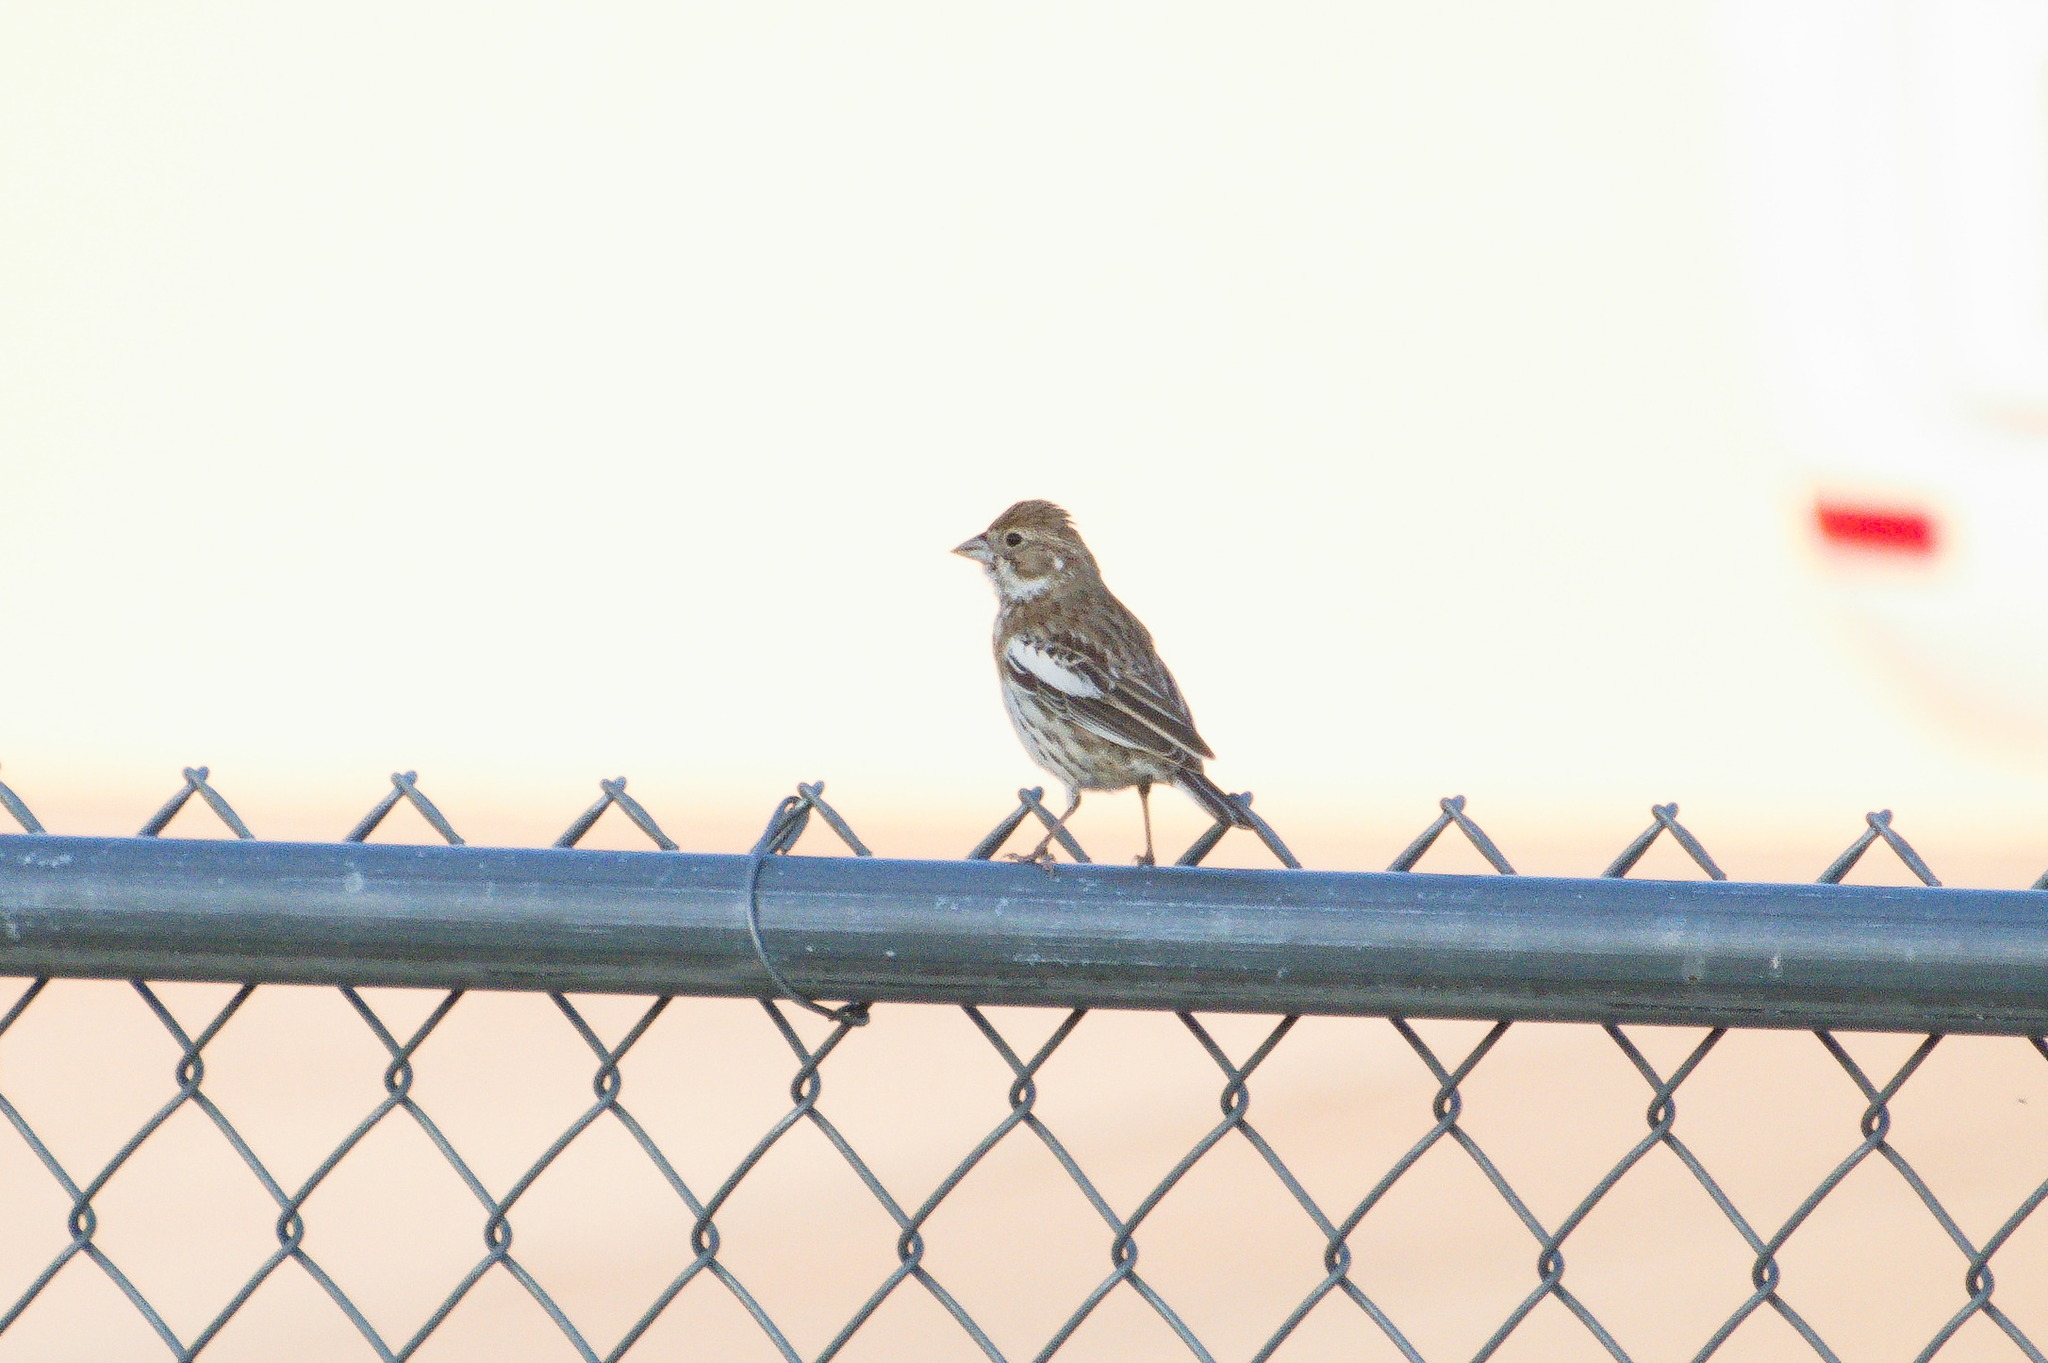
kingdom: Animalia
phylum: Chordata
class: Aves
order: Passeriformes
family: Passerellidae
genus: Calamospiza
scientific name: Calamospiza melanocorys
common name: Lark bunting
